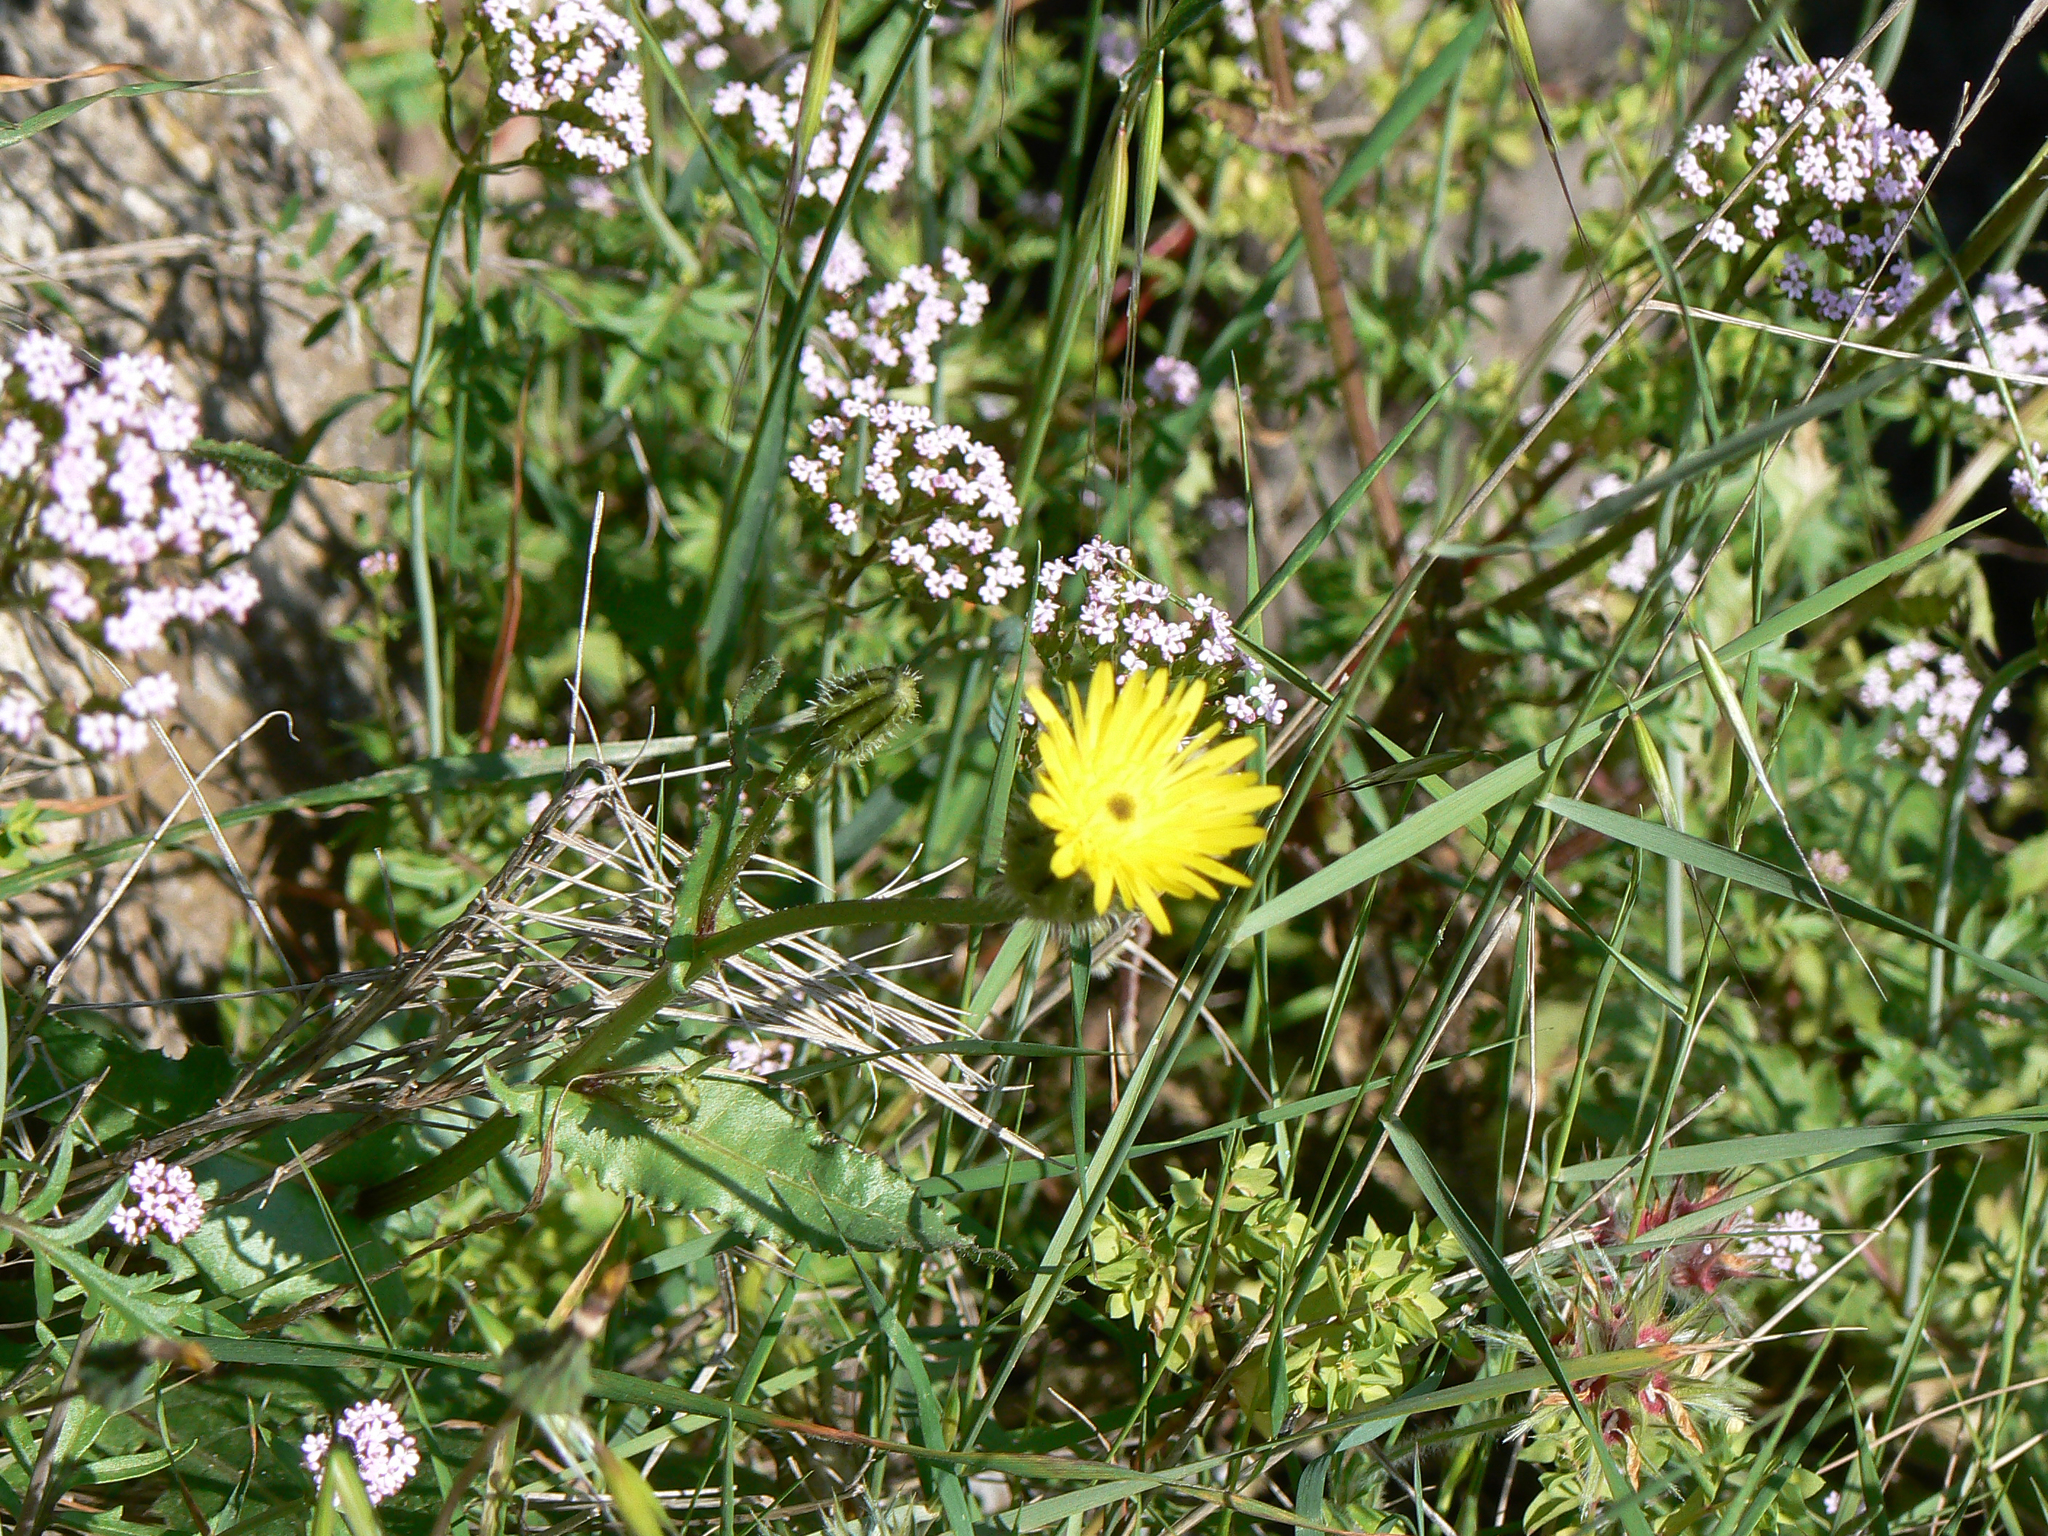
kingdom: Plantae
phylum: Tracheophyta
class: Magnoliopsida
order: Asterales
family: Asteraceae
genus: Urospermum
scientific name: Urospermum picroides
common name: False hawkbit
